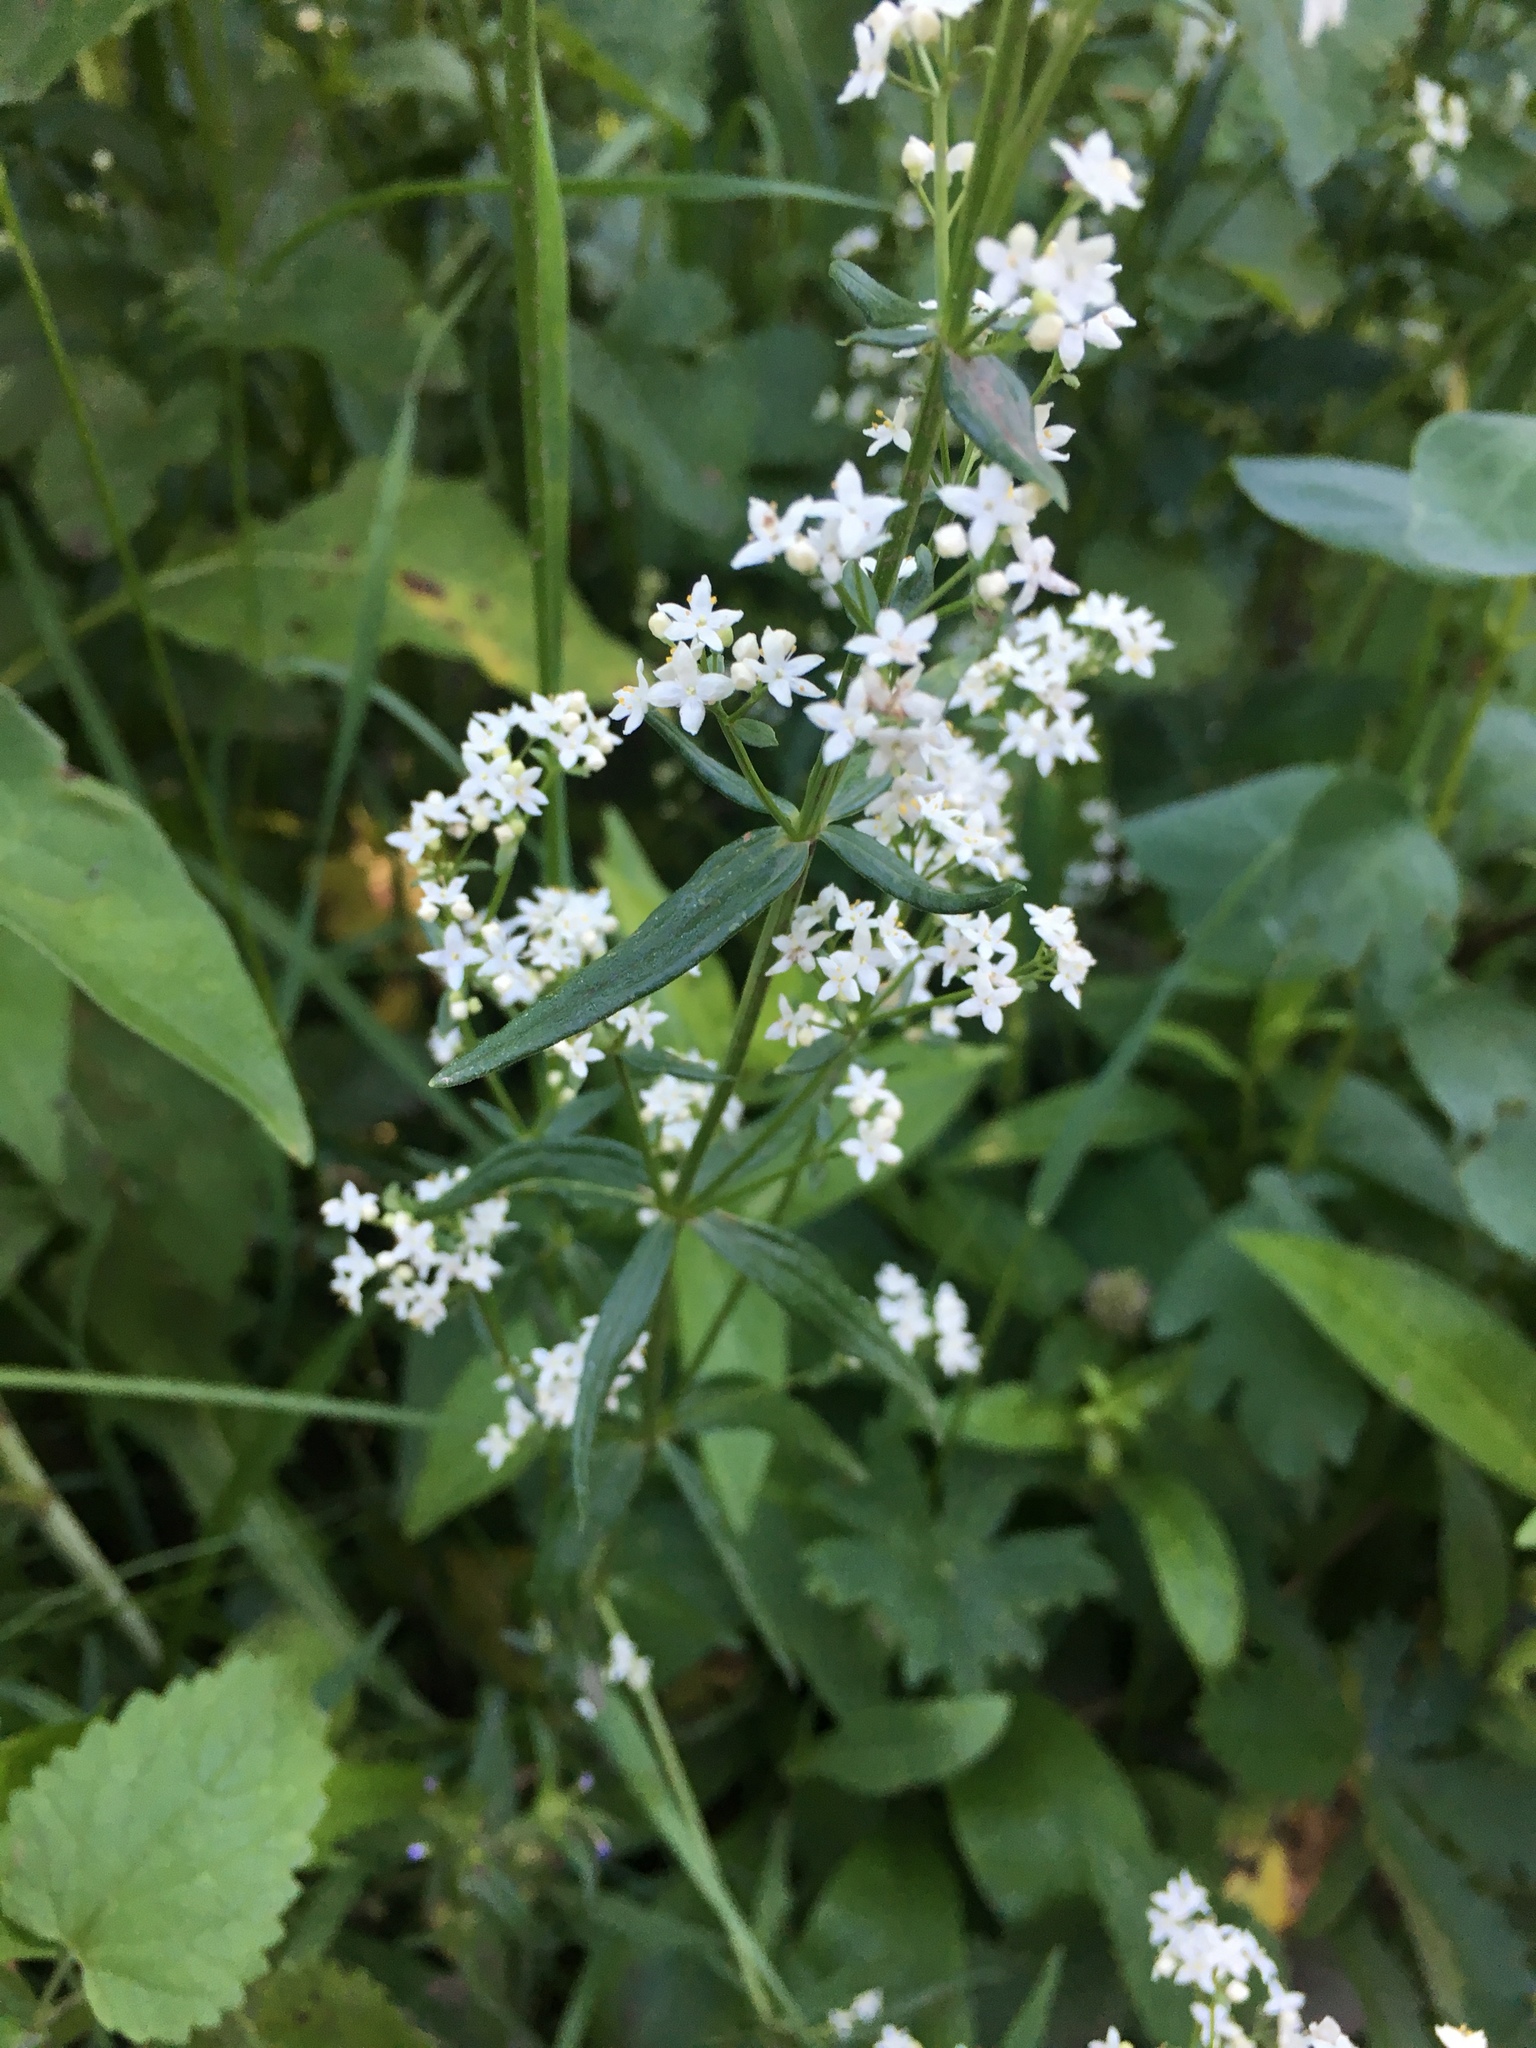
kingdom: Plantae
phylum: Tracheophyta
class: Magnoliopsida
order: Gentianales
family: Rubiaceae
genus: Galium
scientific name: Galium boreale
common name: Northern bedstraw
